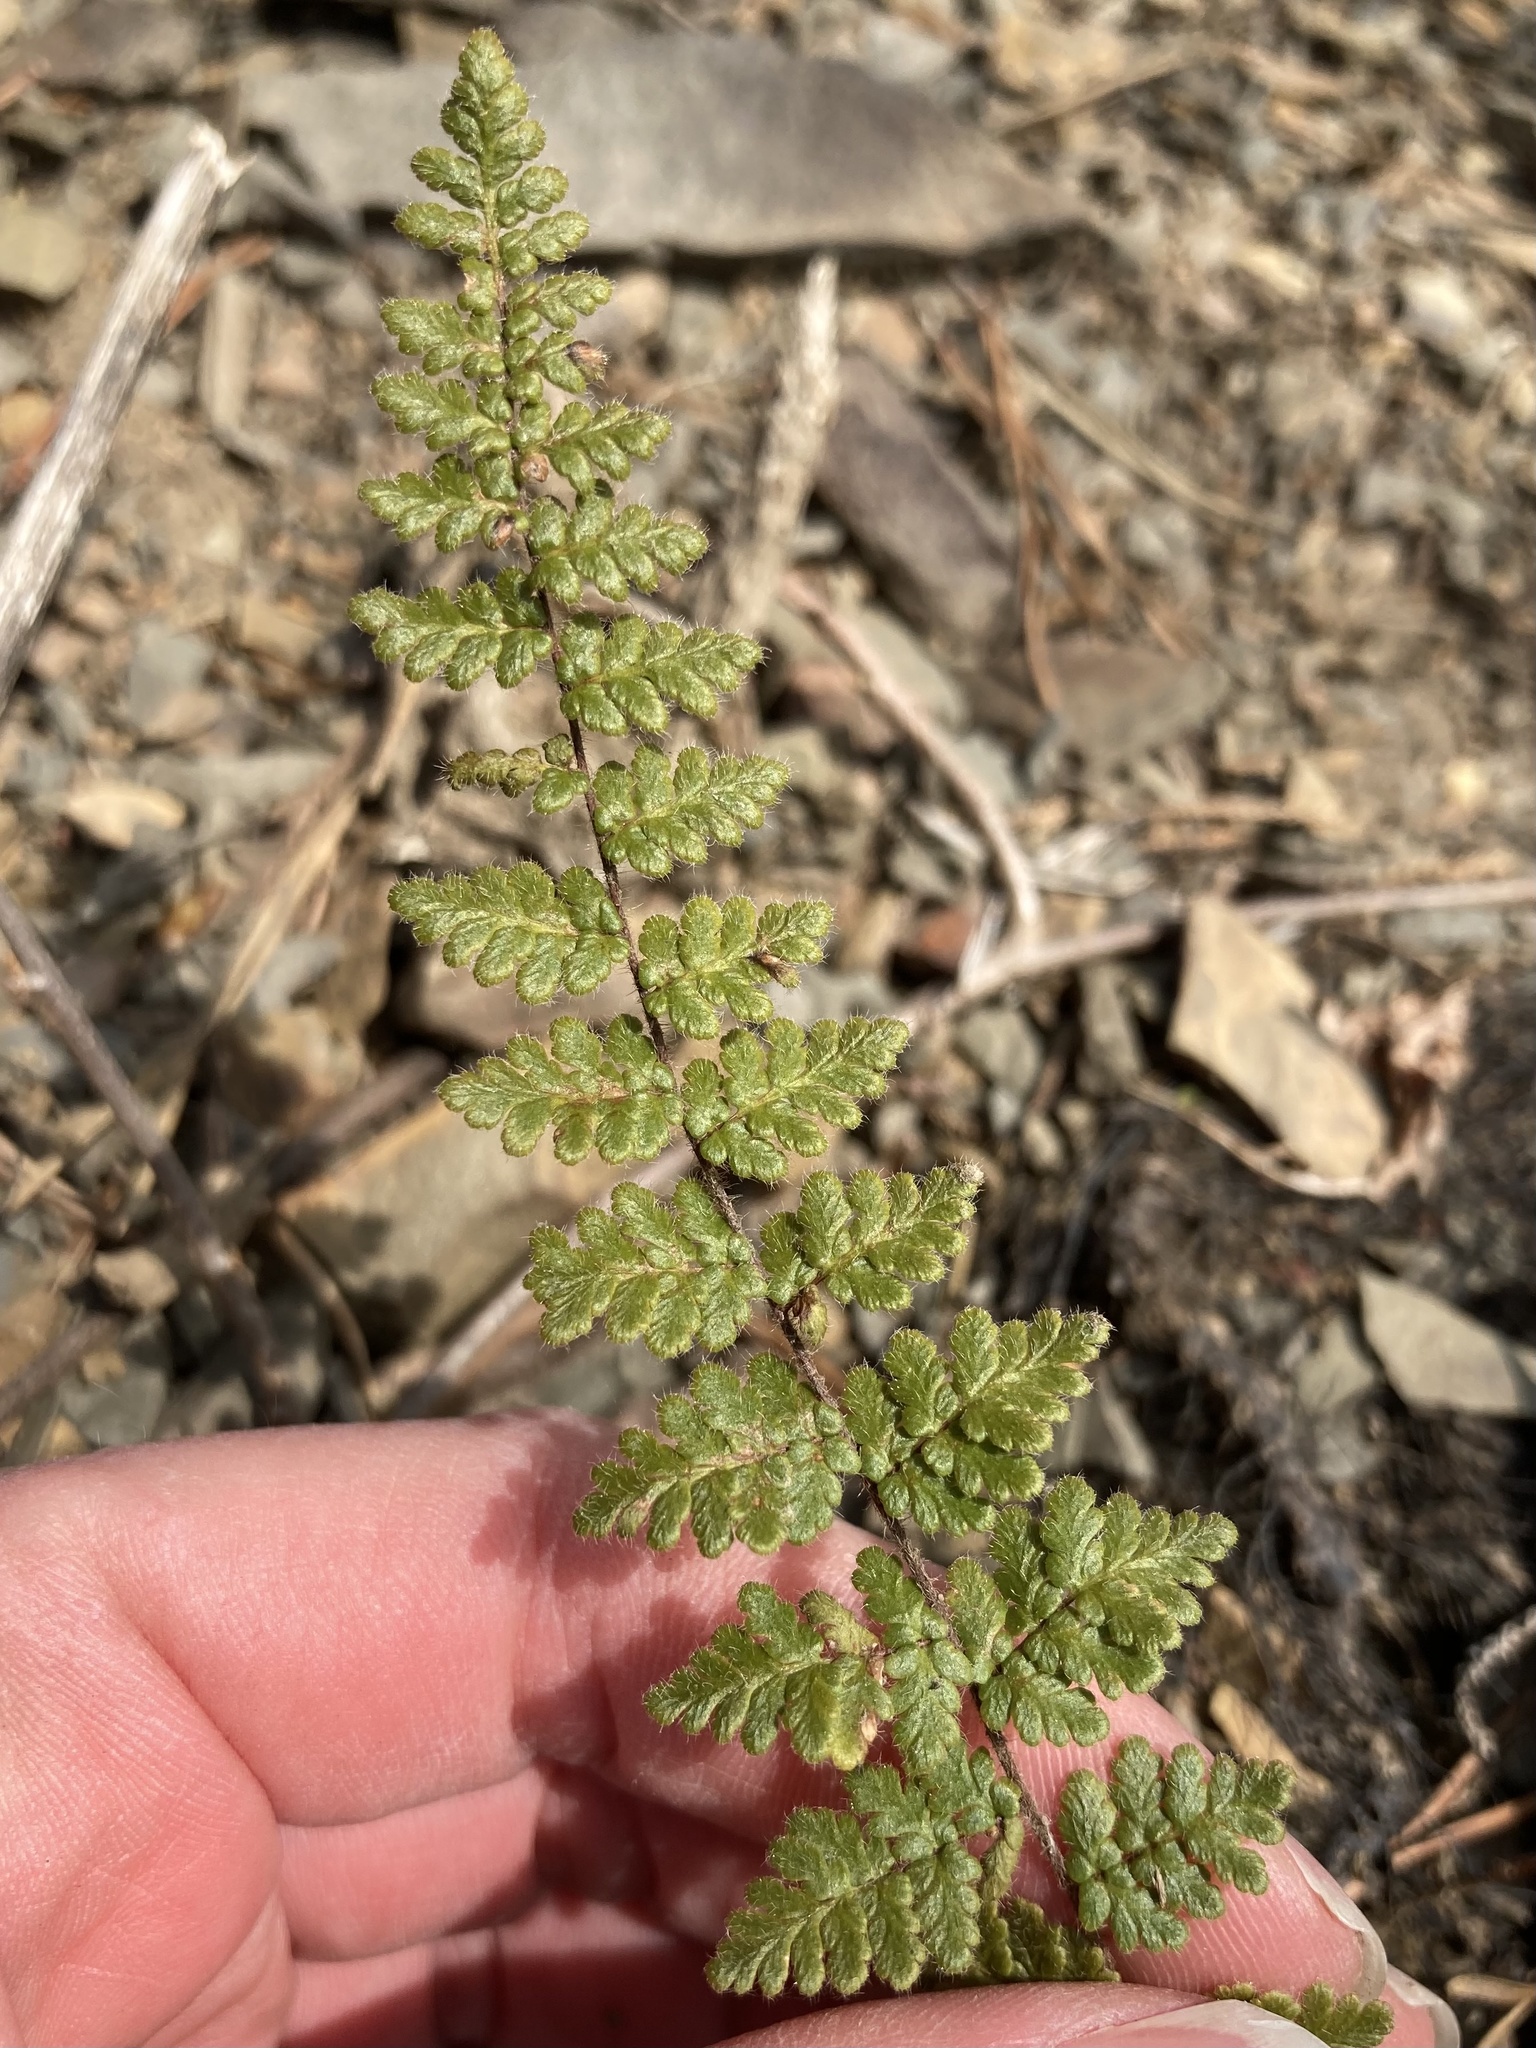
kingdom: Plantae
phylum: Tracheophyta
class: Polypodiopsida
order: Polypodiales
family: Pteridaceae
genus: Myriopteris
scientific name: Myriopteris lanosa
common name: Hairy lip fern
